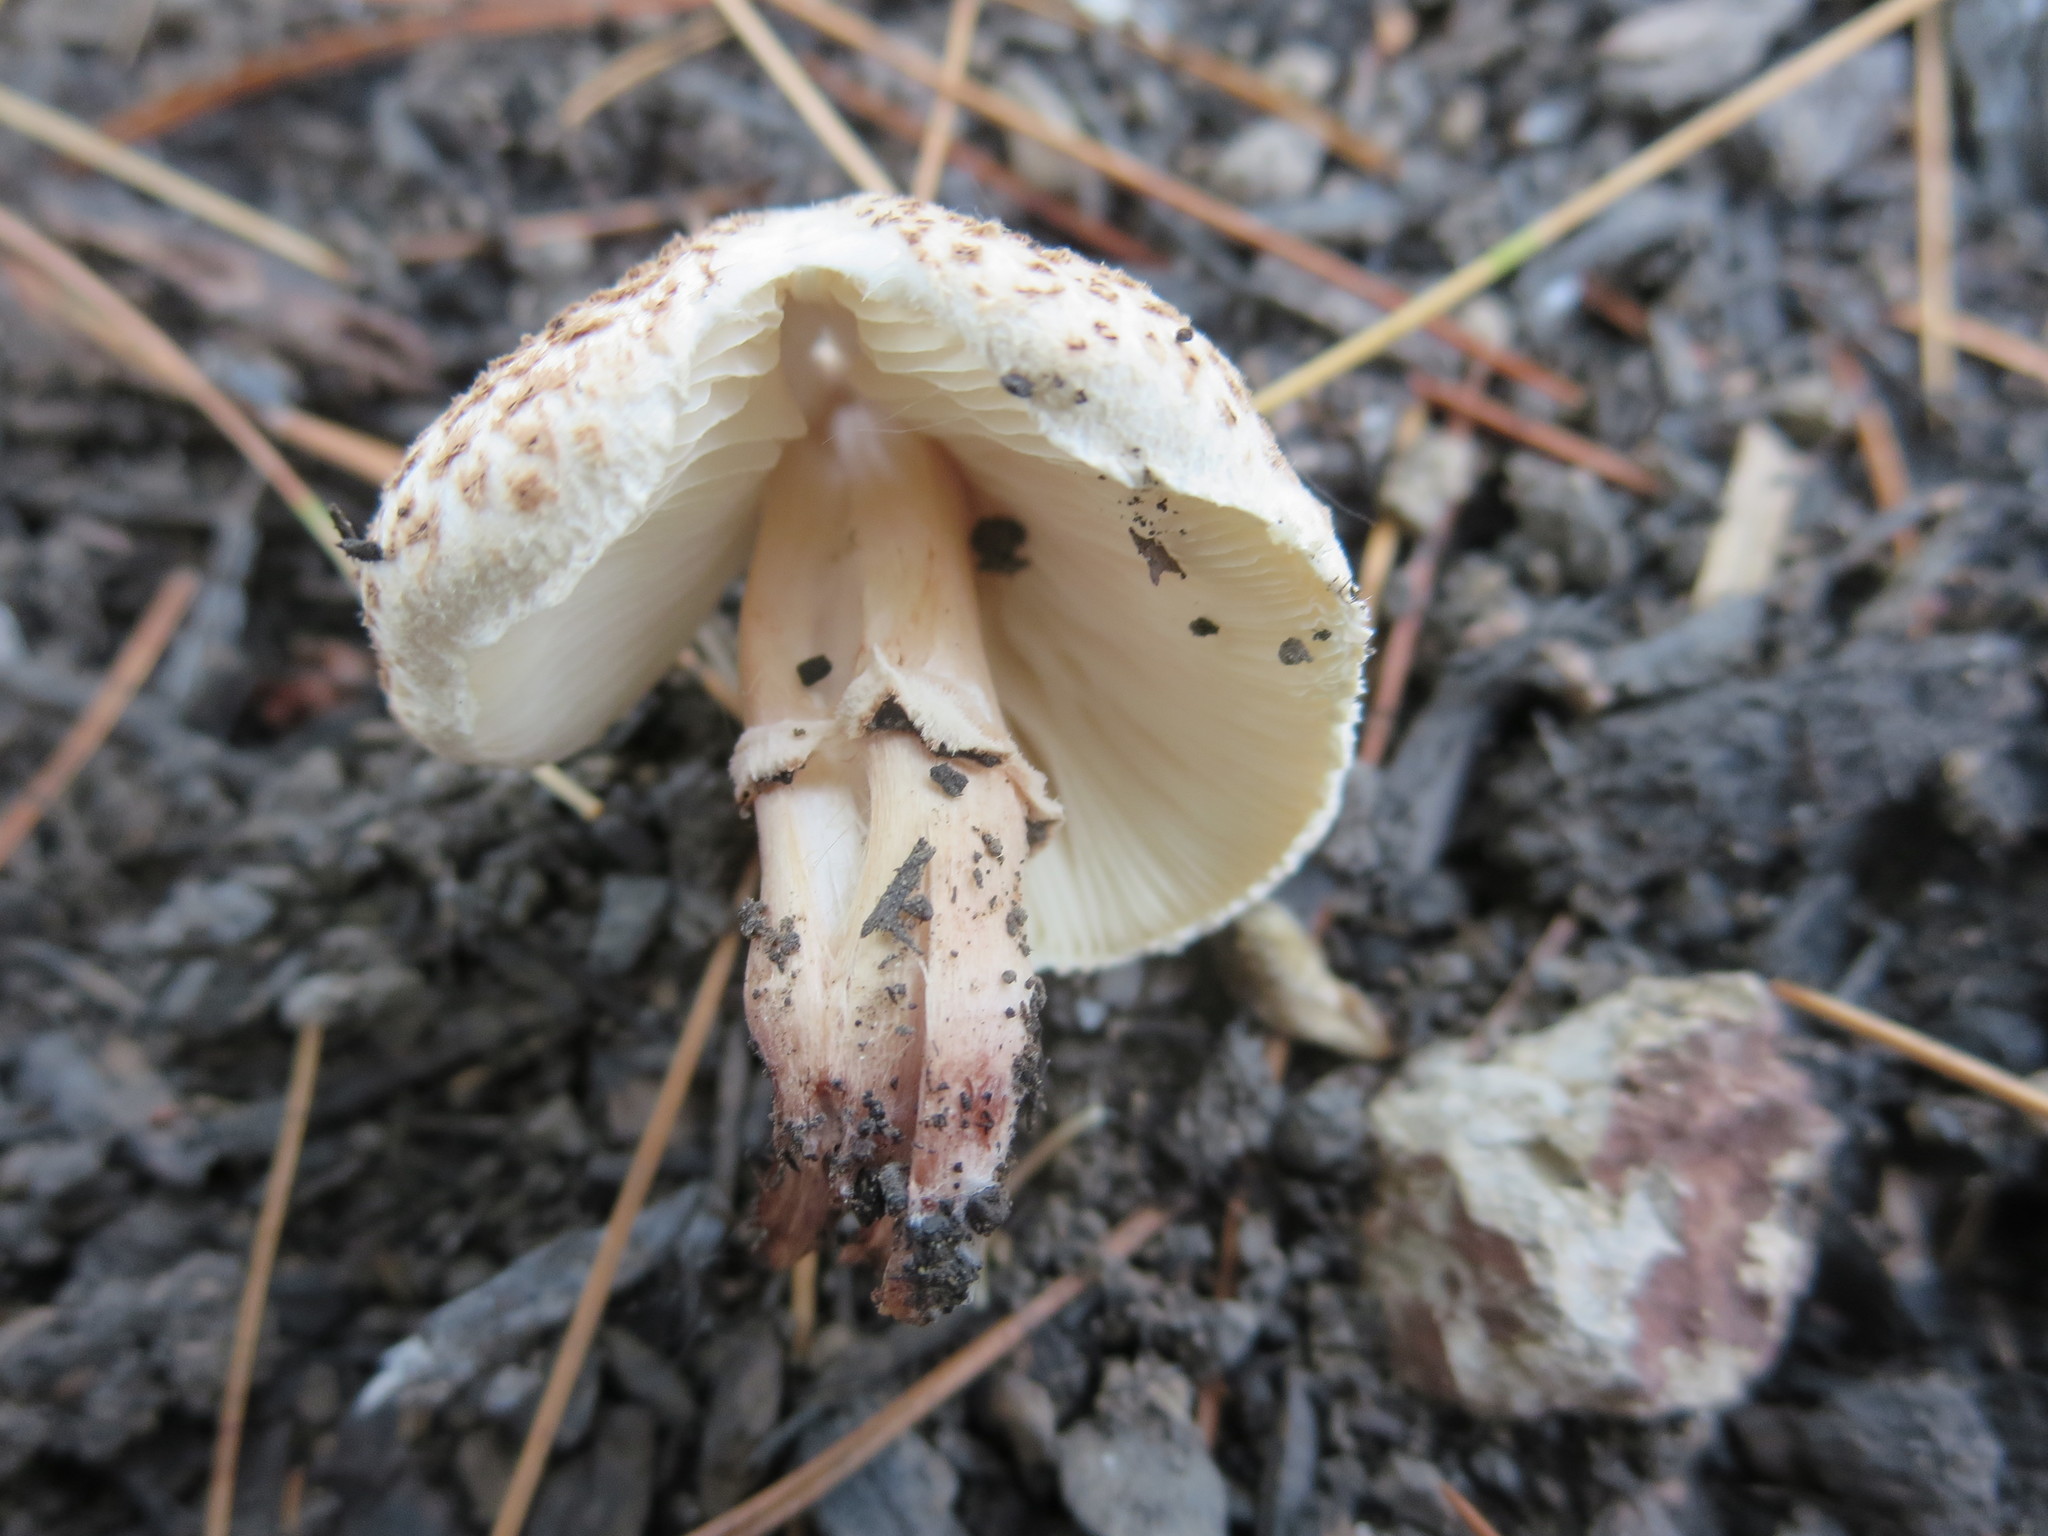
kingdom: Fungi
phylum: Basidiomycota
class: Agaricomycetes
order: Agaricales
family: Agaricaceae
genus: Lepiota
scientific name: Lepiota lilacea
